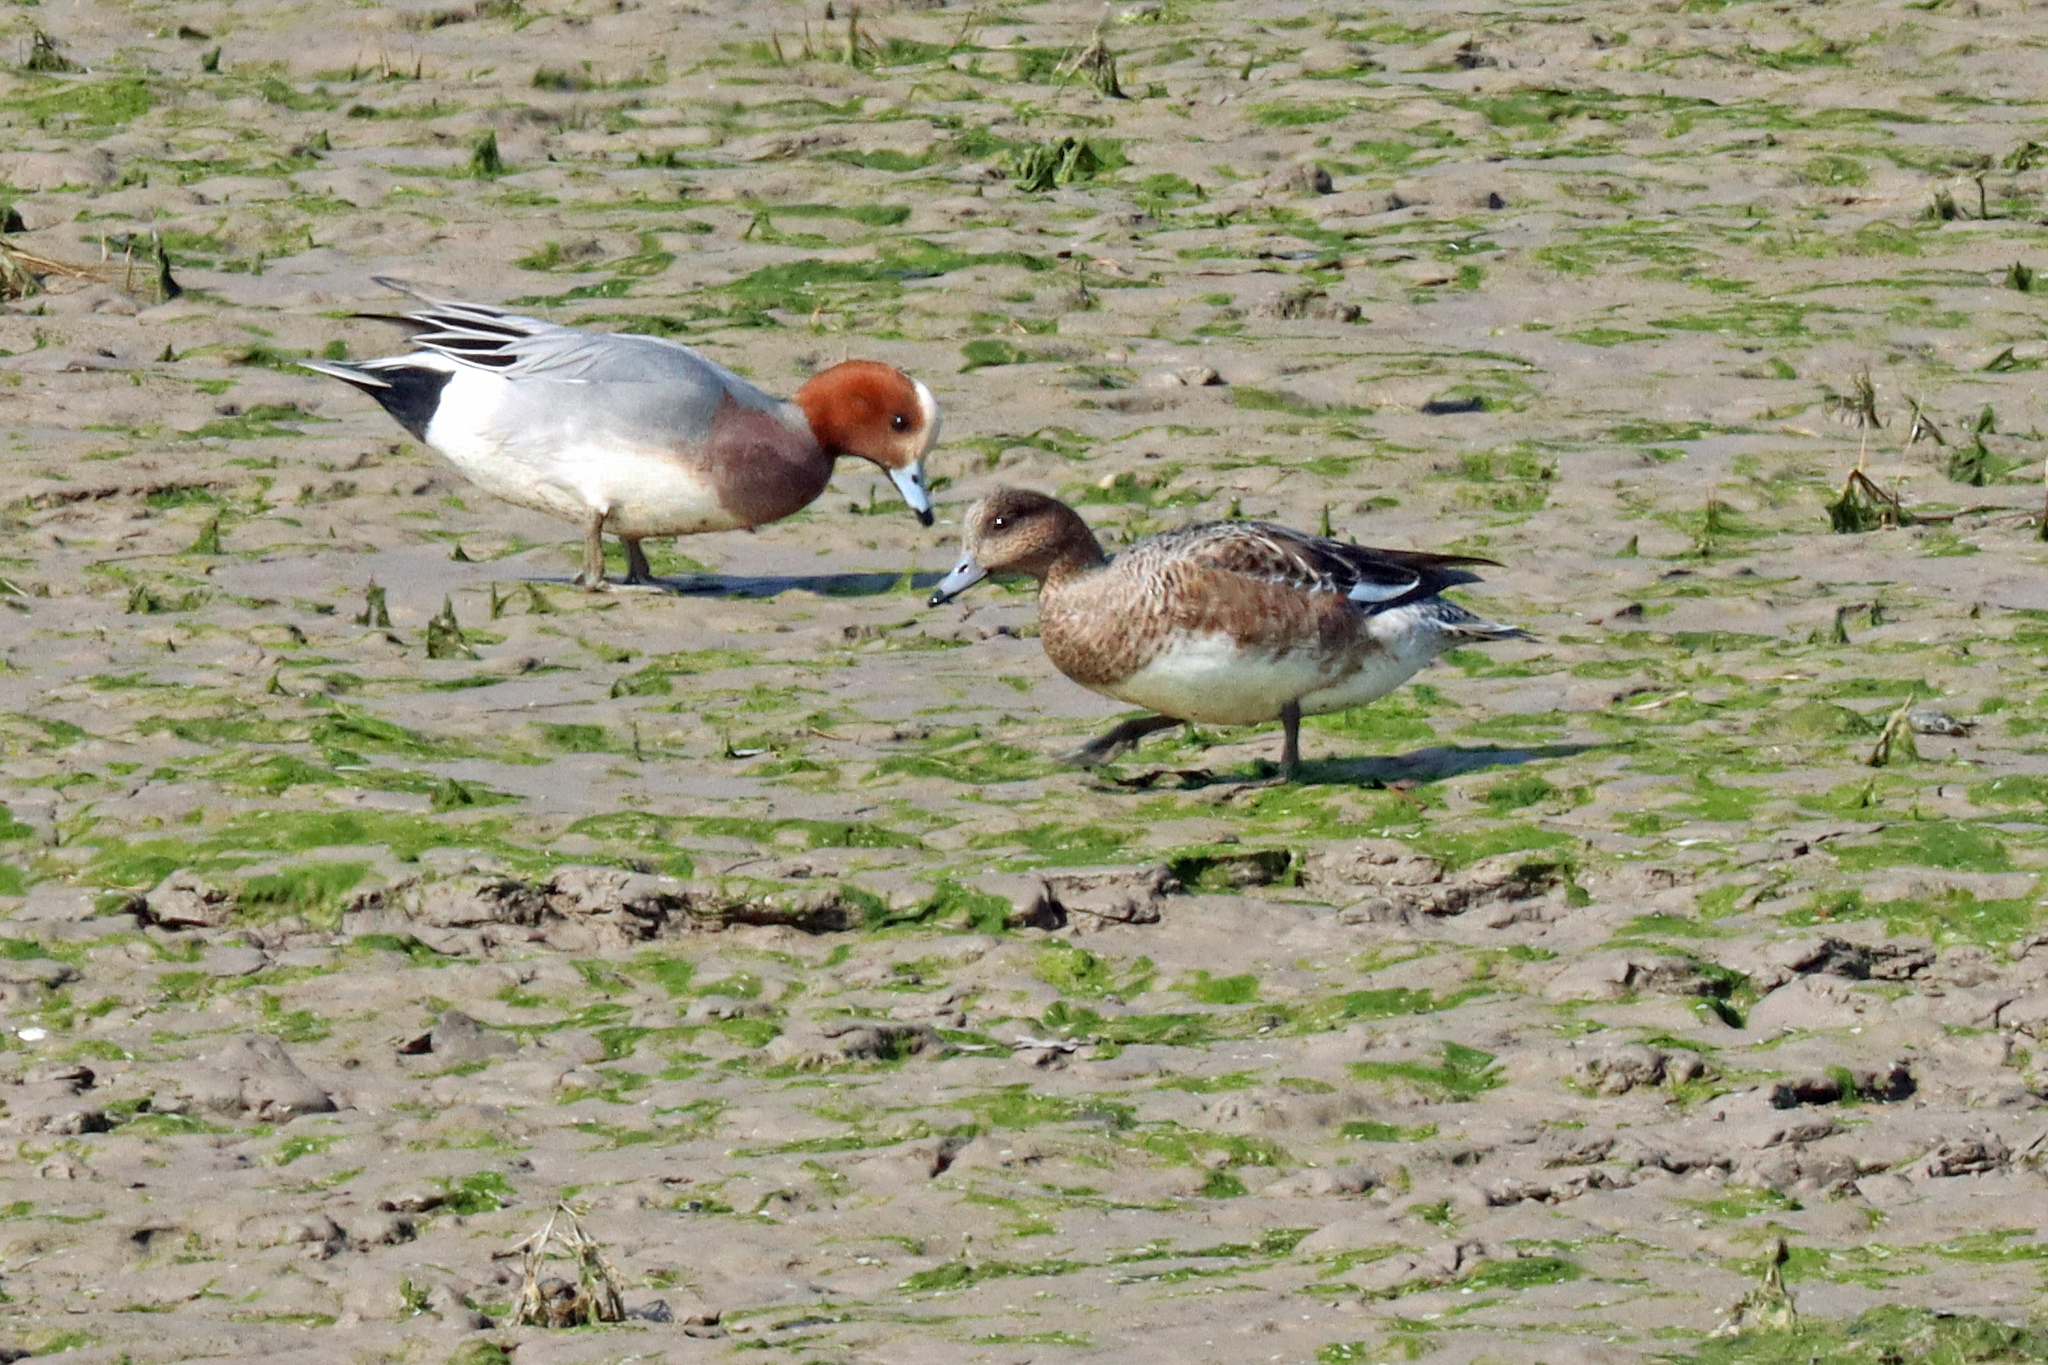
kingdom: Animalia
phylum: Chordata
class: Aves
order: Anseriformes
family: Anatidae
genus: Mareca
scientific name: Mareca penelope
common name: Eurasian wigeon
